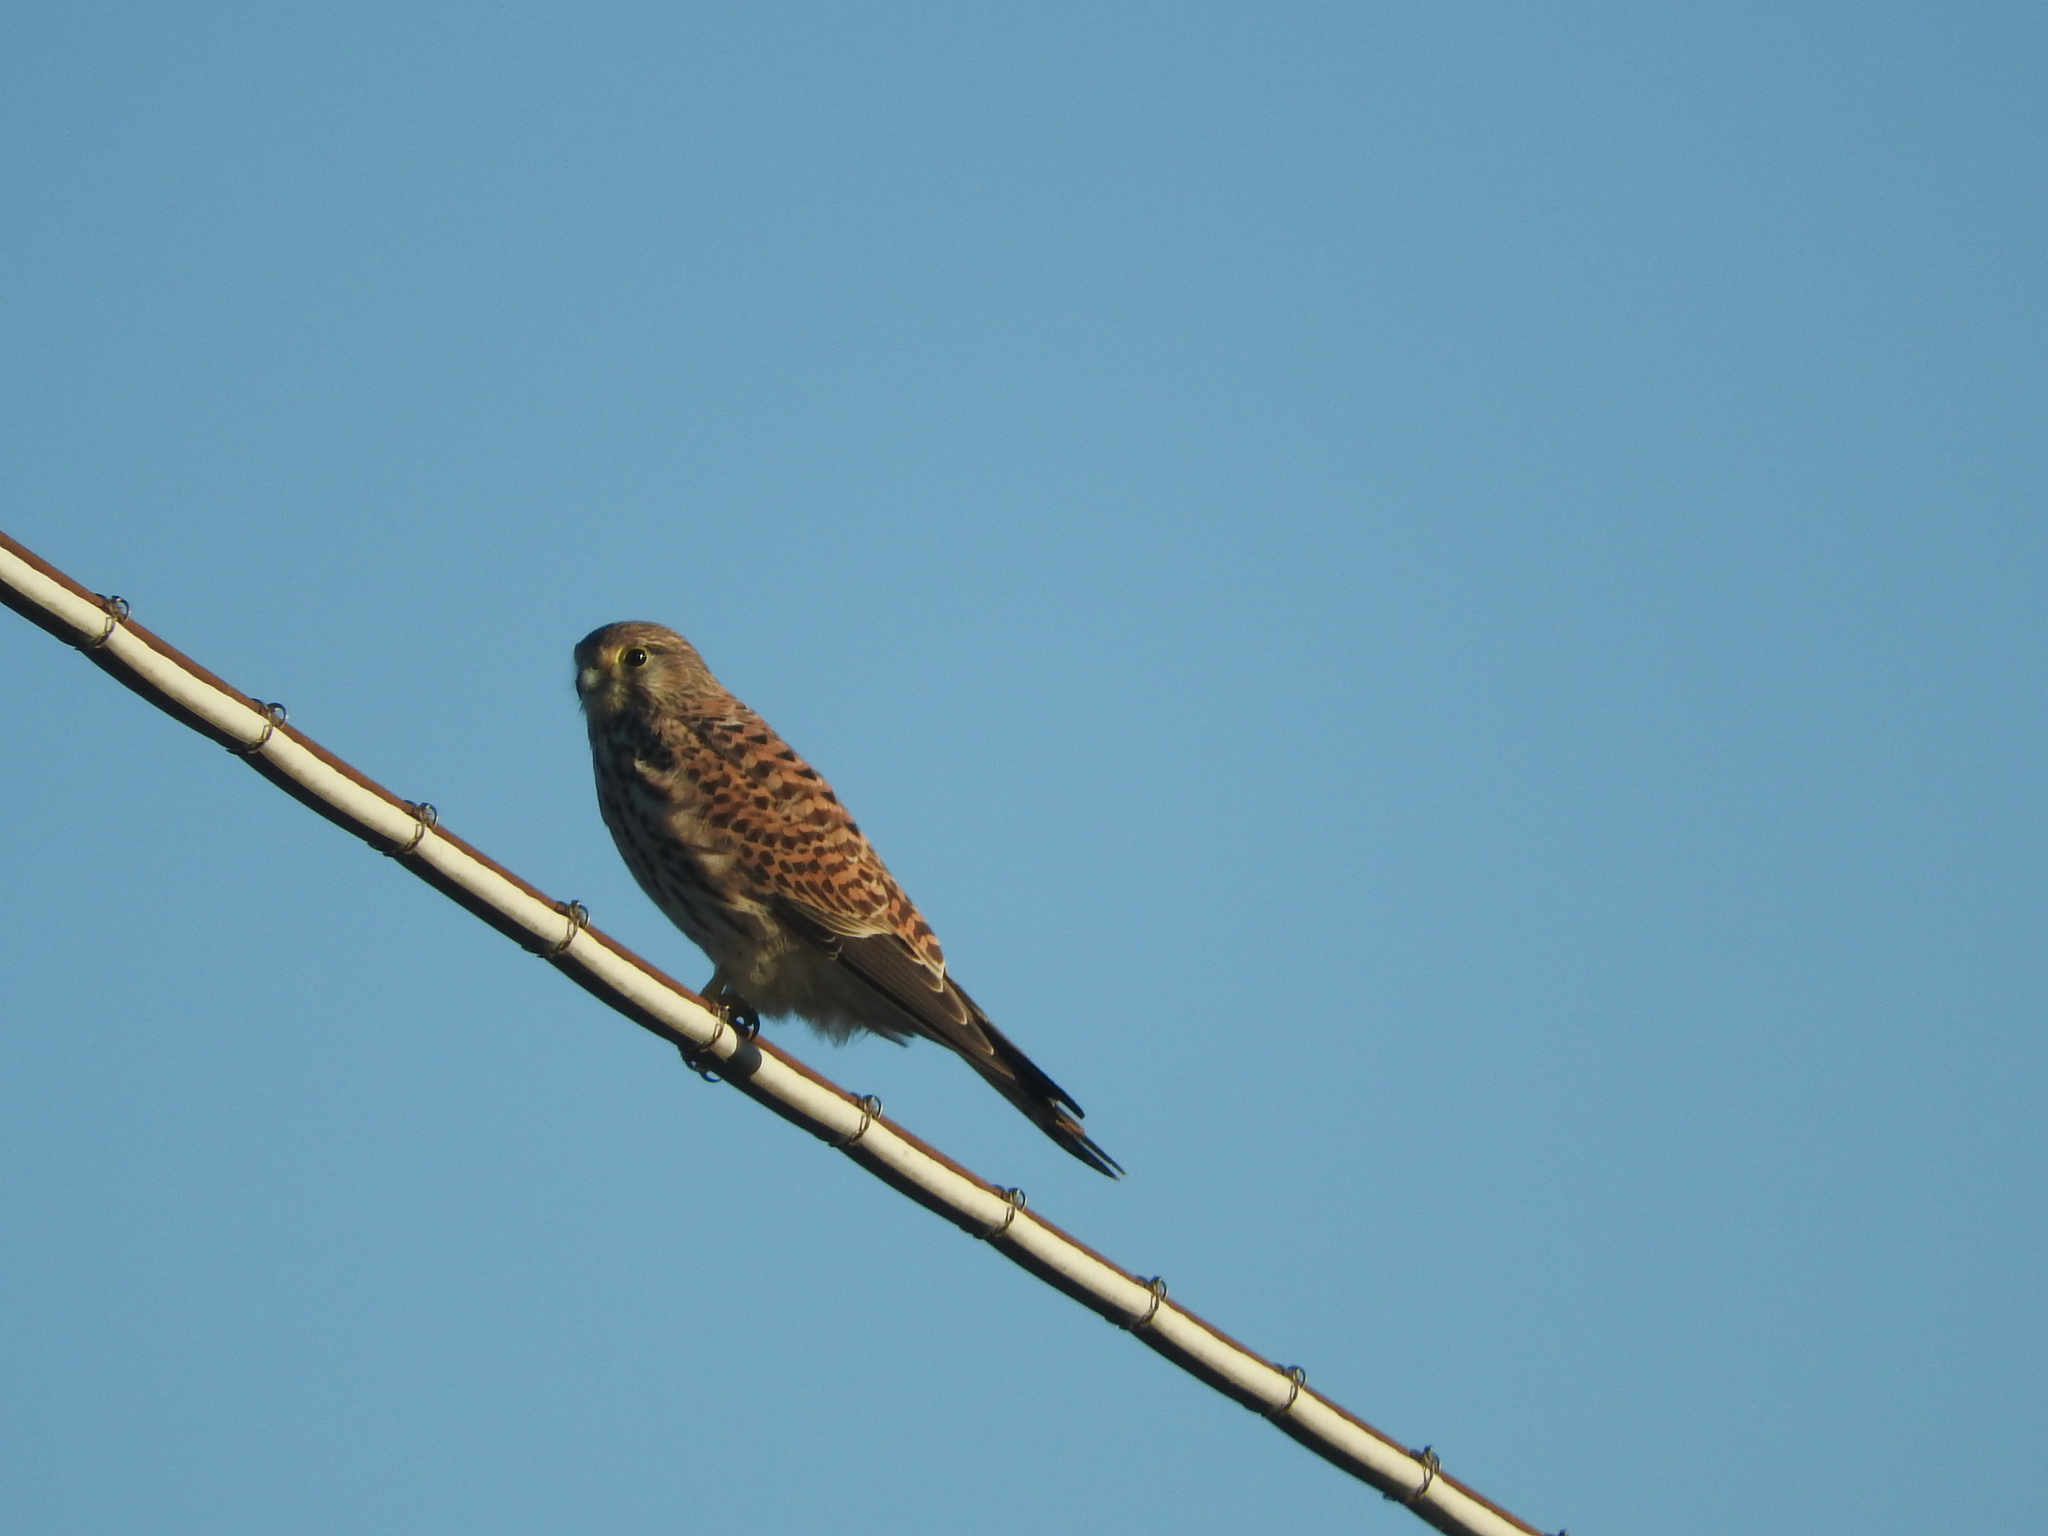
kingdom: Animalia
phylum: Chordata
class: Aves
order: Falconiformes
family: Falconidae
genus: Falco
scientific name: Falco tinnunculus
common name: Common kestrel
